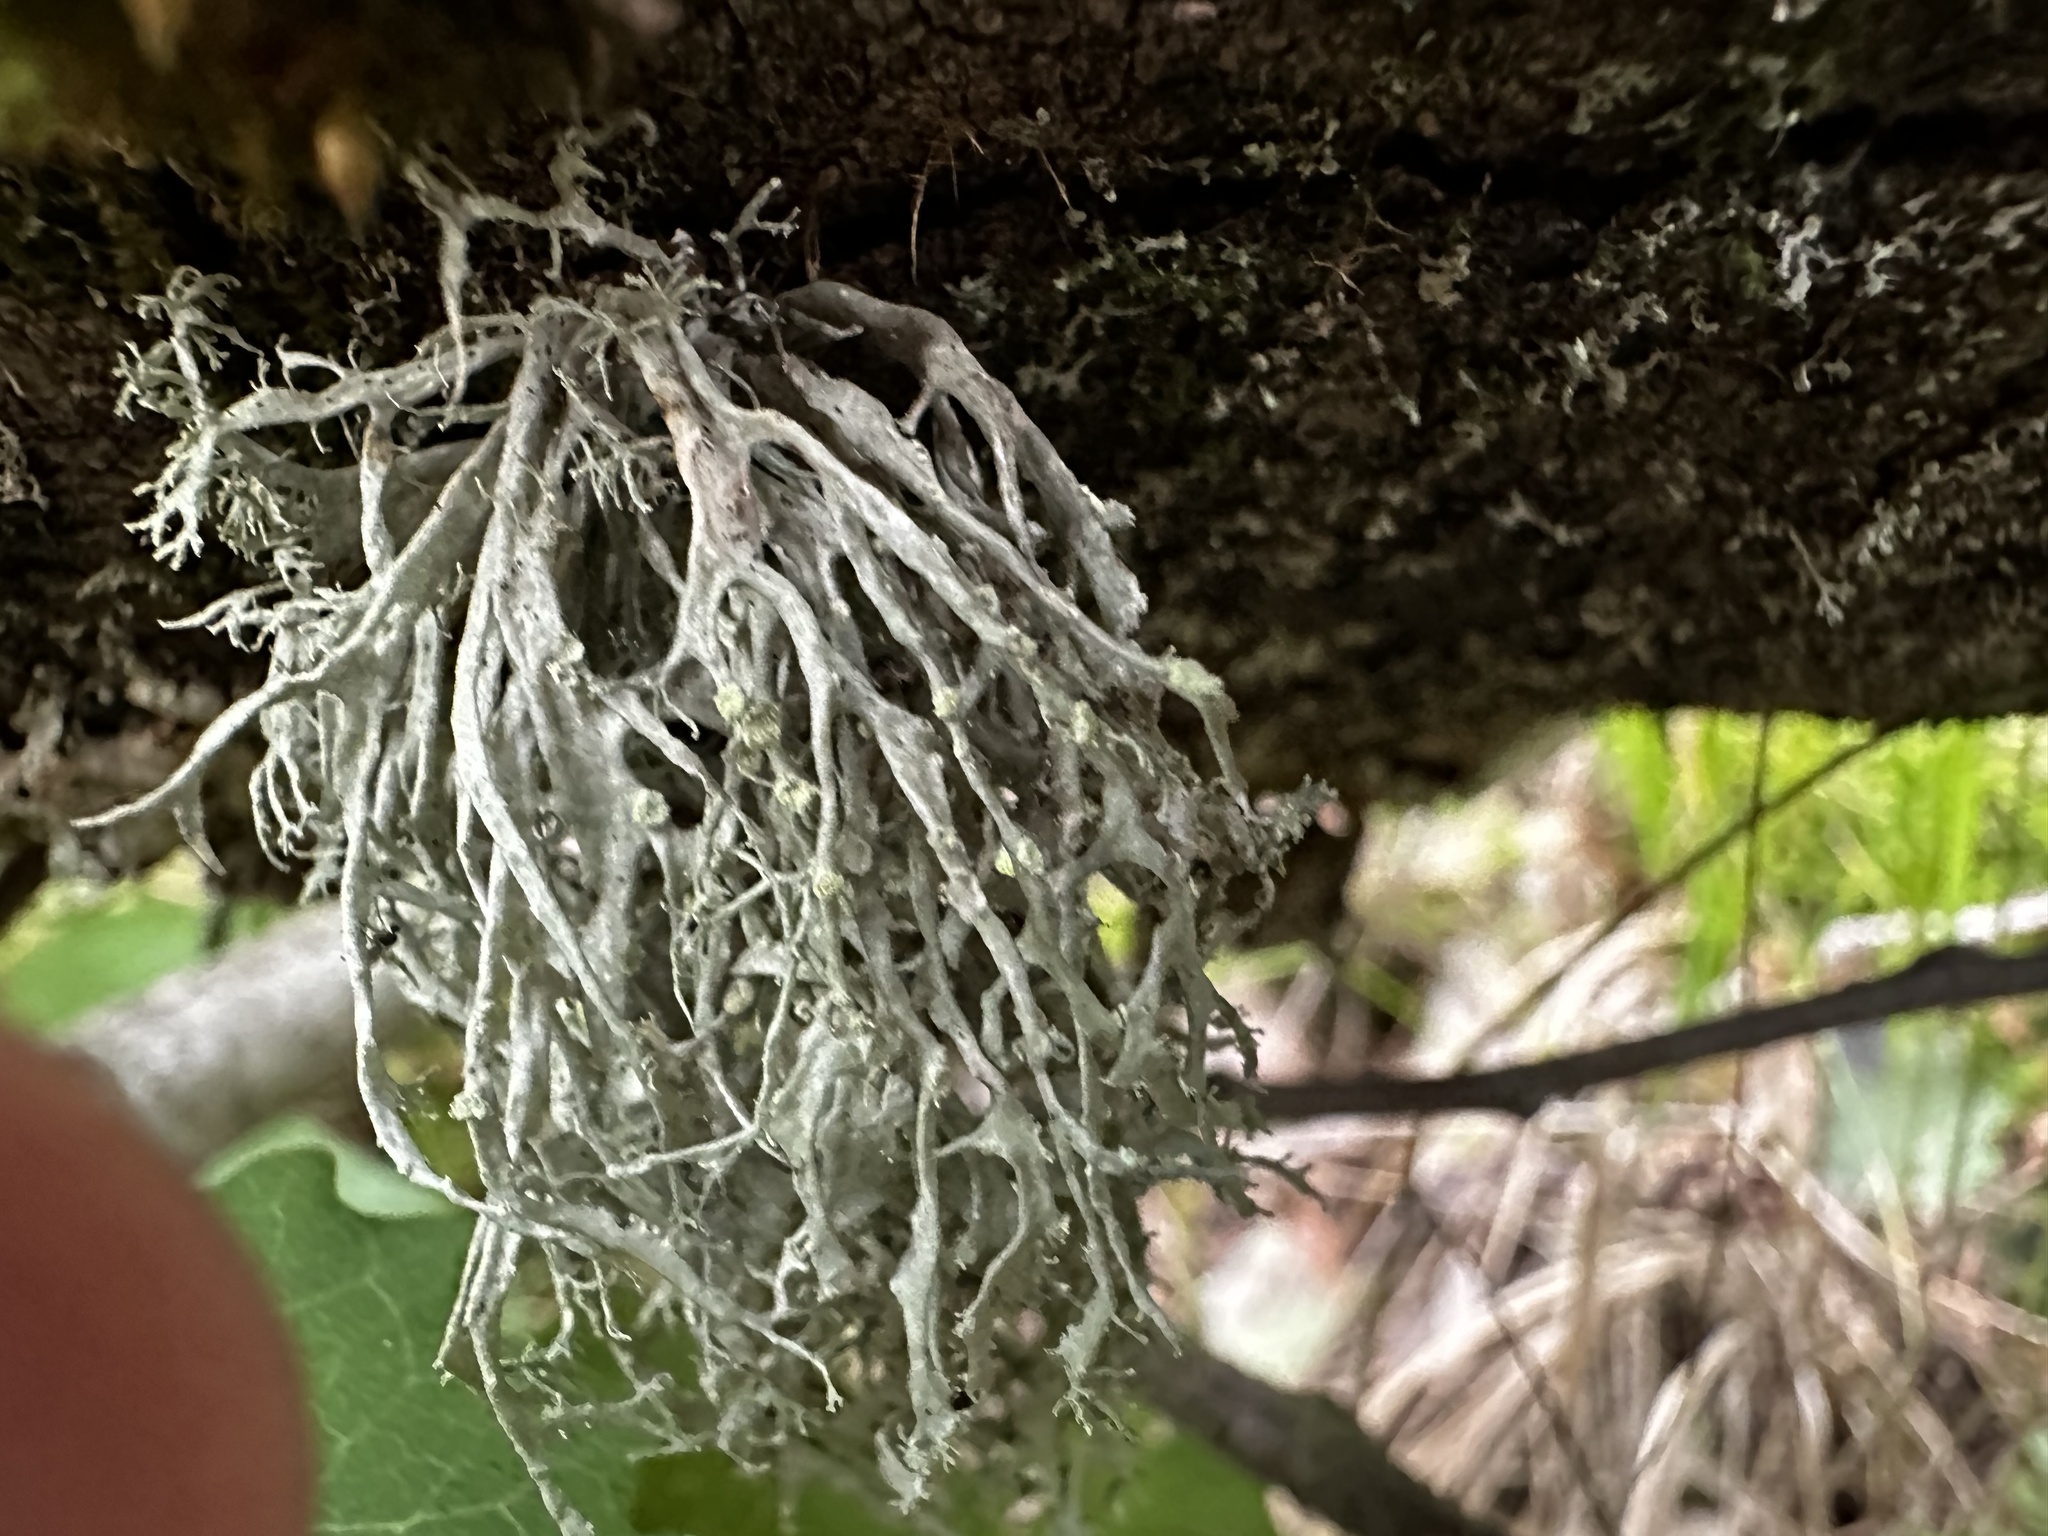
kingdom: Fungi
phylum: Ascomycota
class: Lecanoromycetes
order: Lecanorales
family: Ramalinaceae
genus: Ramalina
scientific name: Ramalina farinacea
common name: Farinose cartilage lichen
